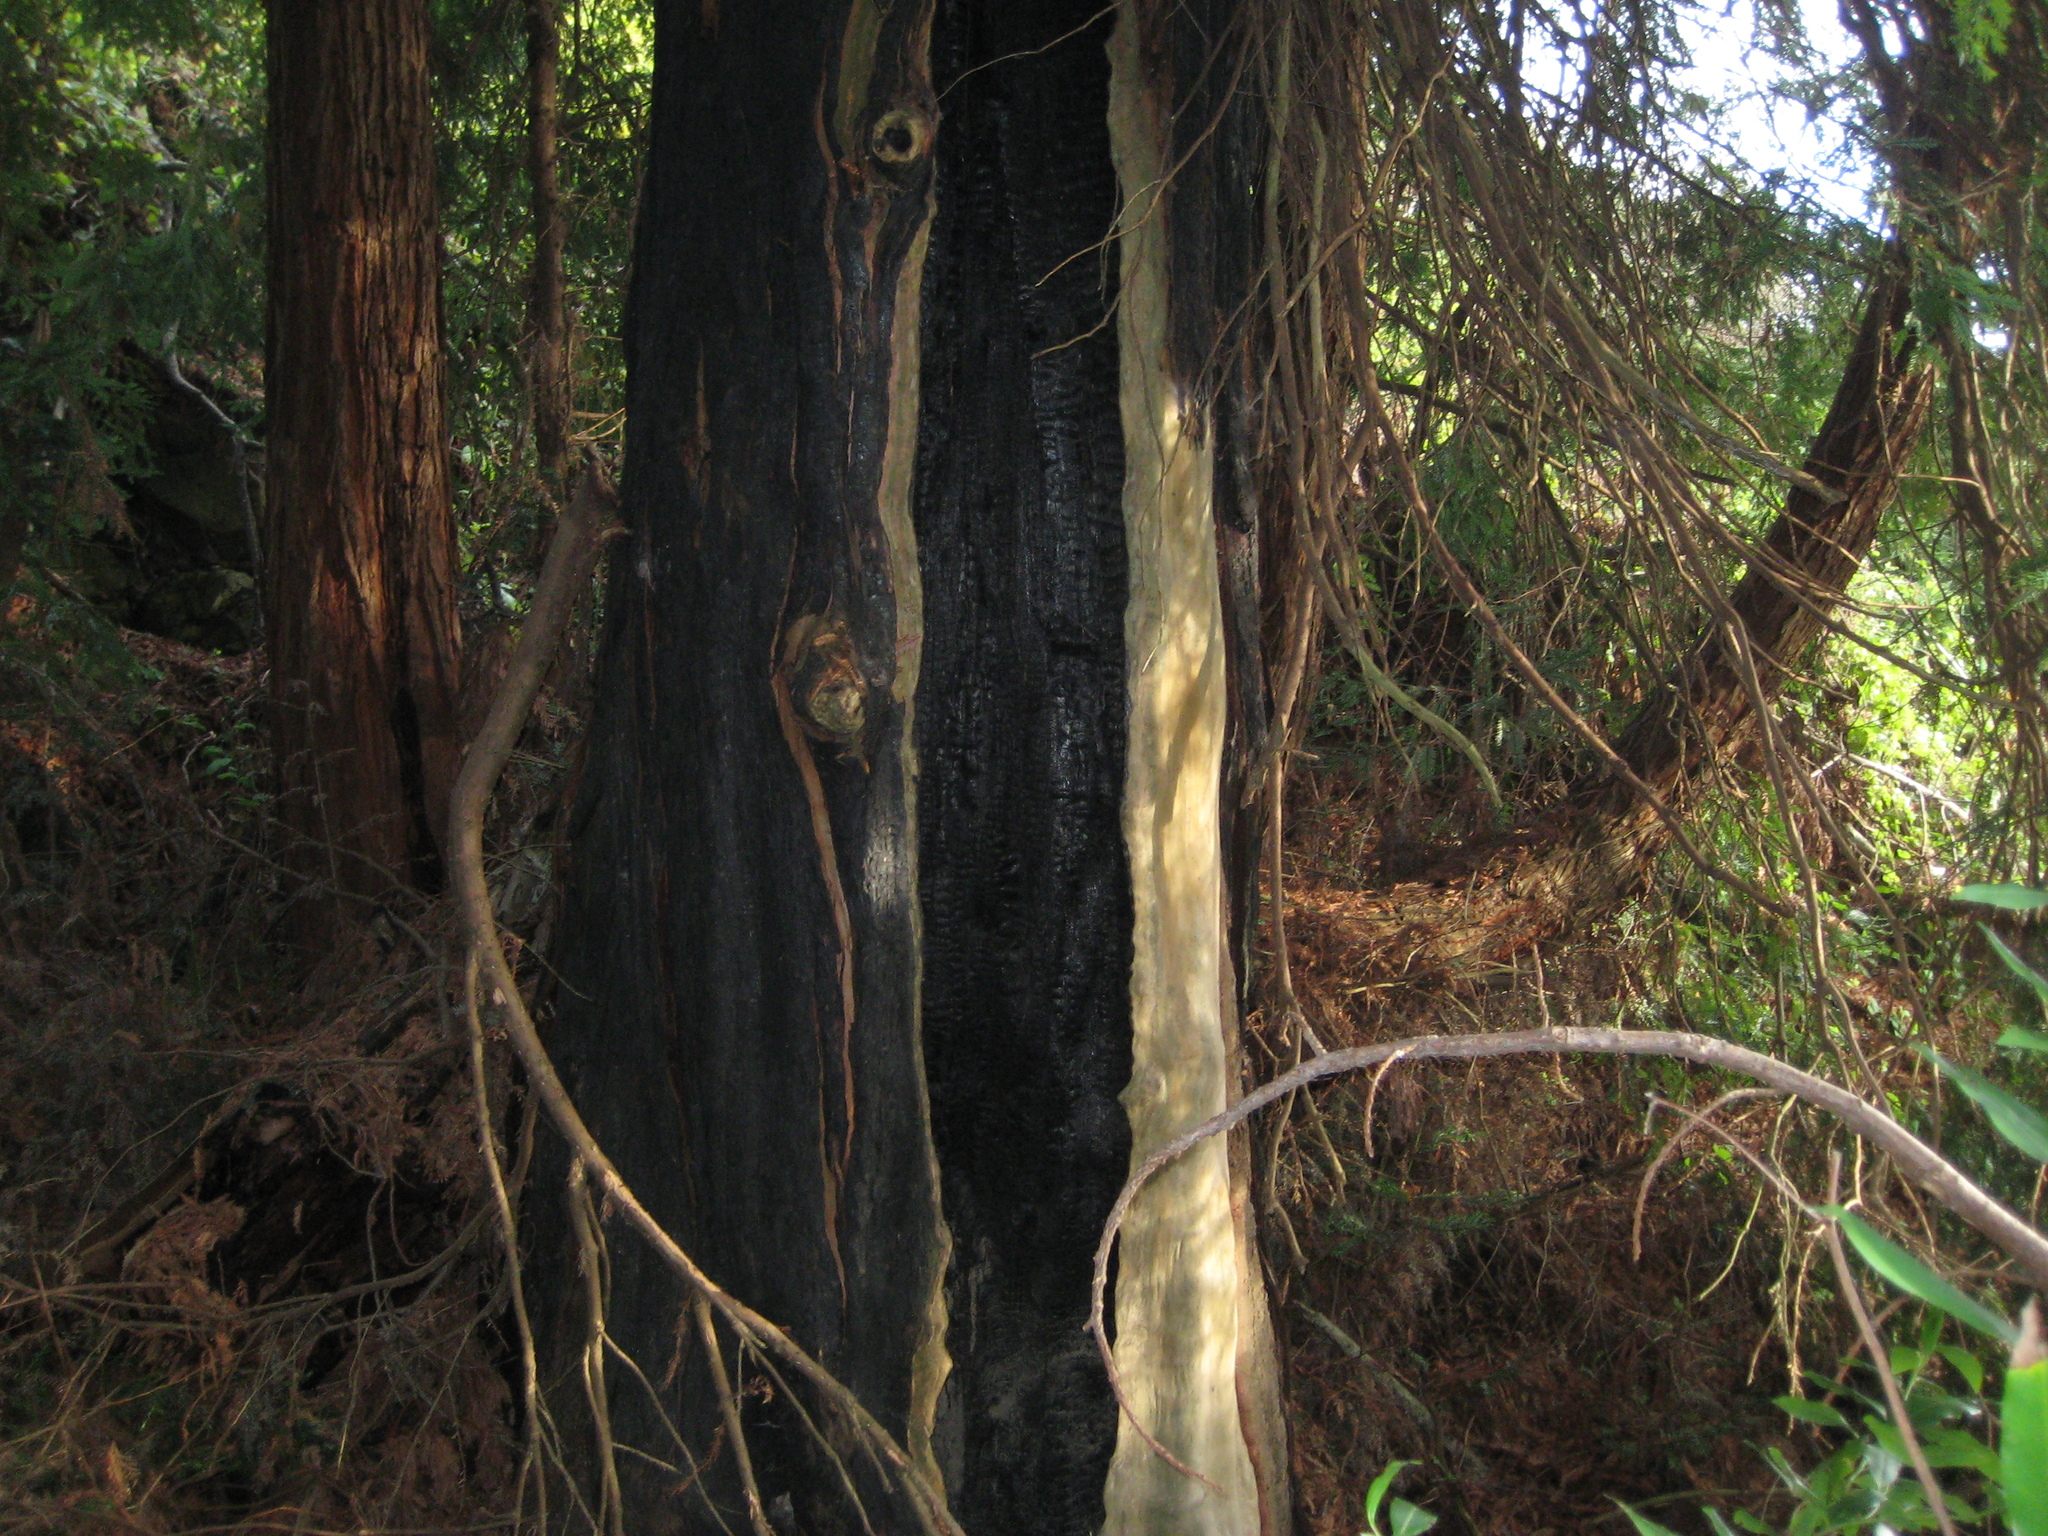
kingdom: Plantae
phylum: Tracheophyta
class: Pinopsida
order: Pinales
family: Cupressaceae
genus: Sequoia
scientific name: Sequoia sempervirens
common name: Coast redwood
